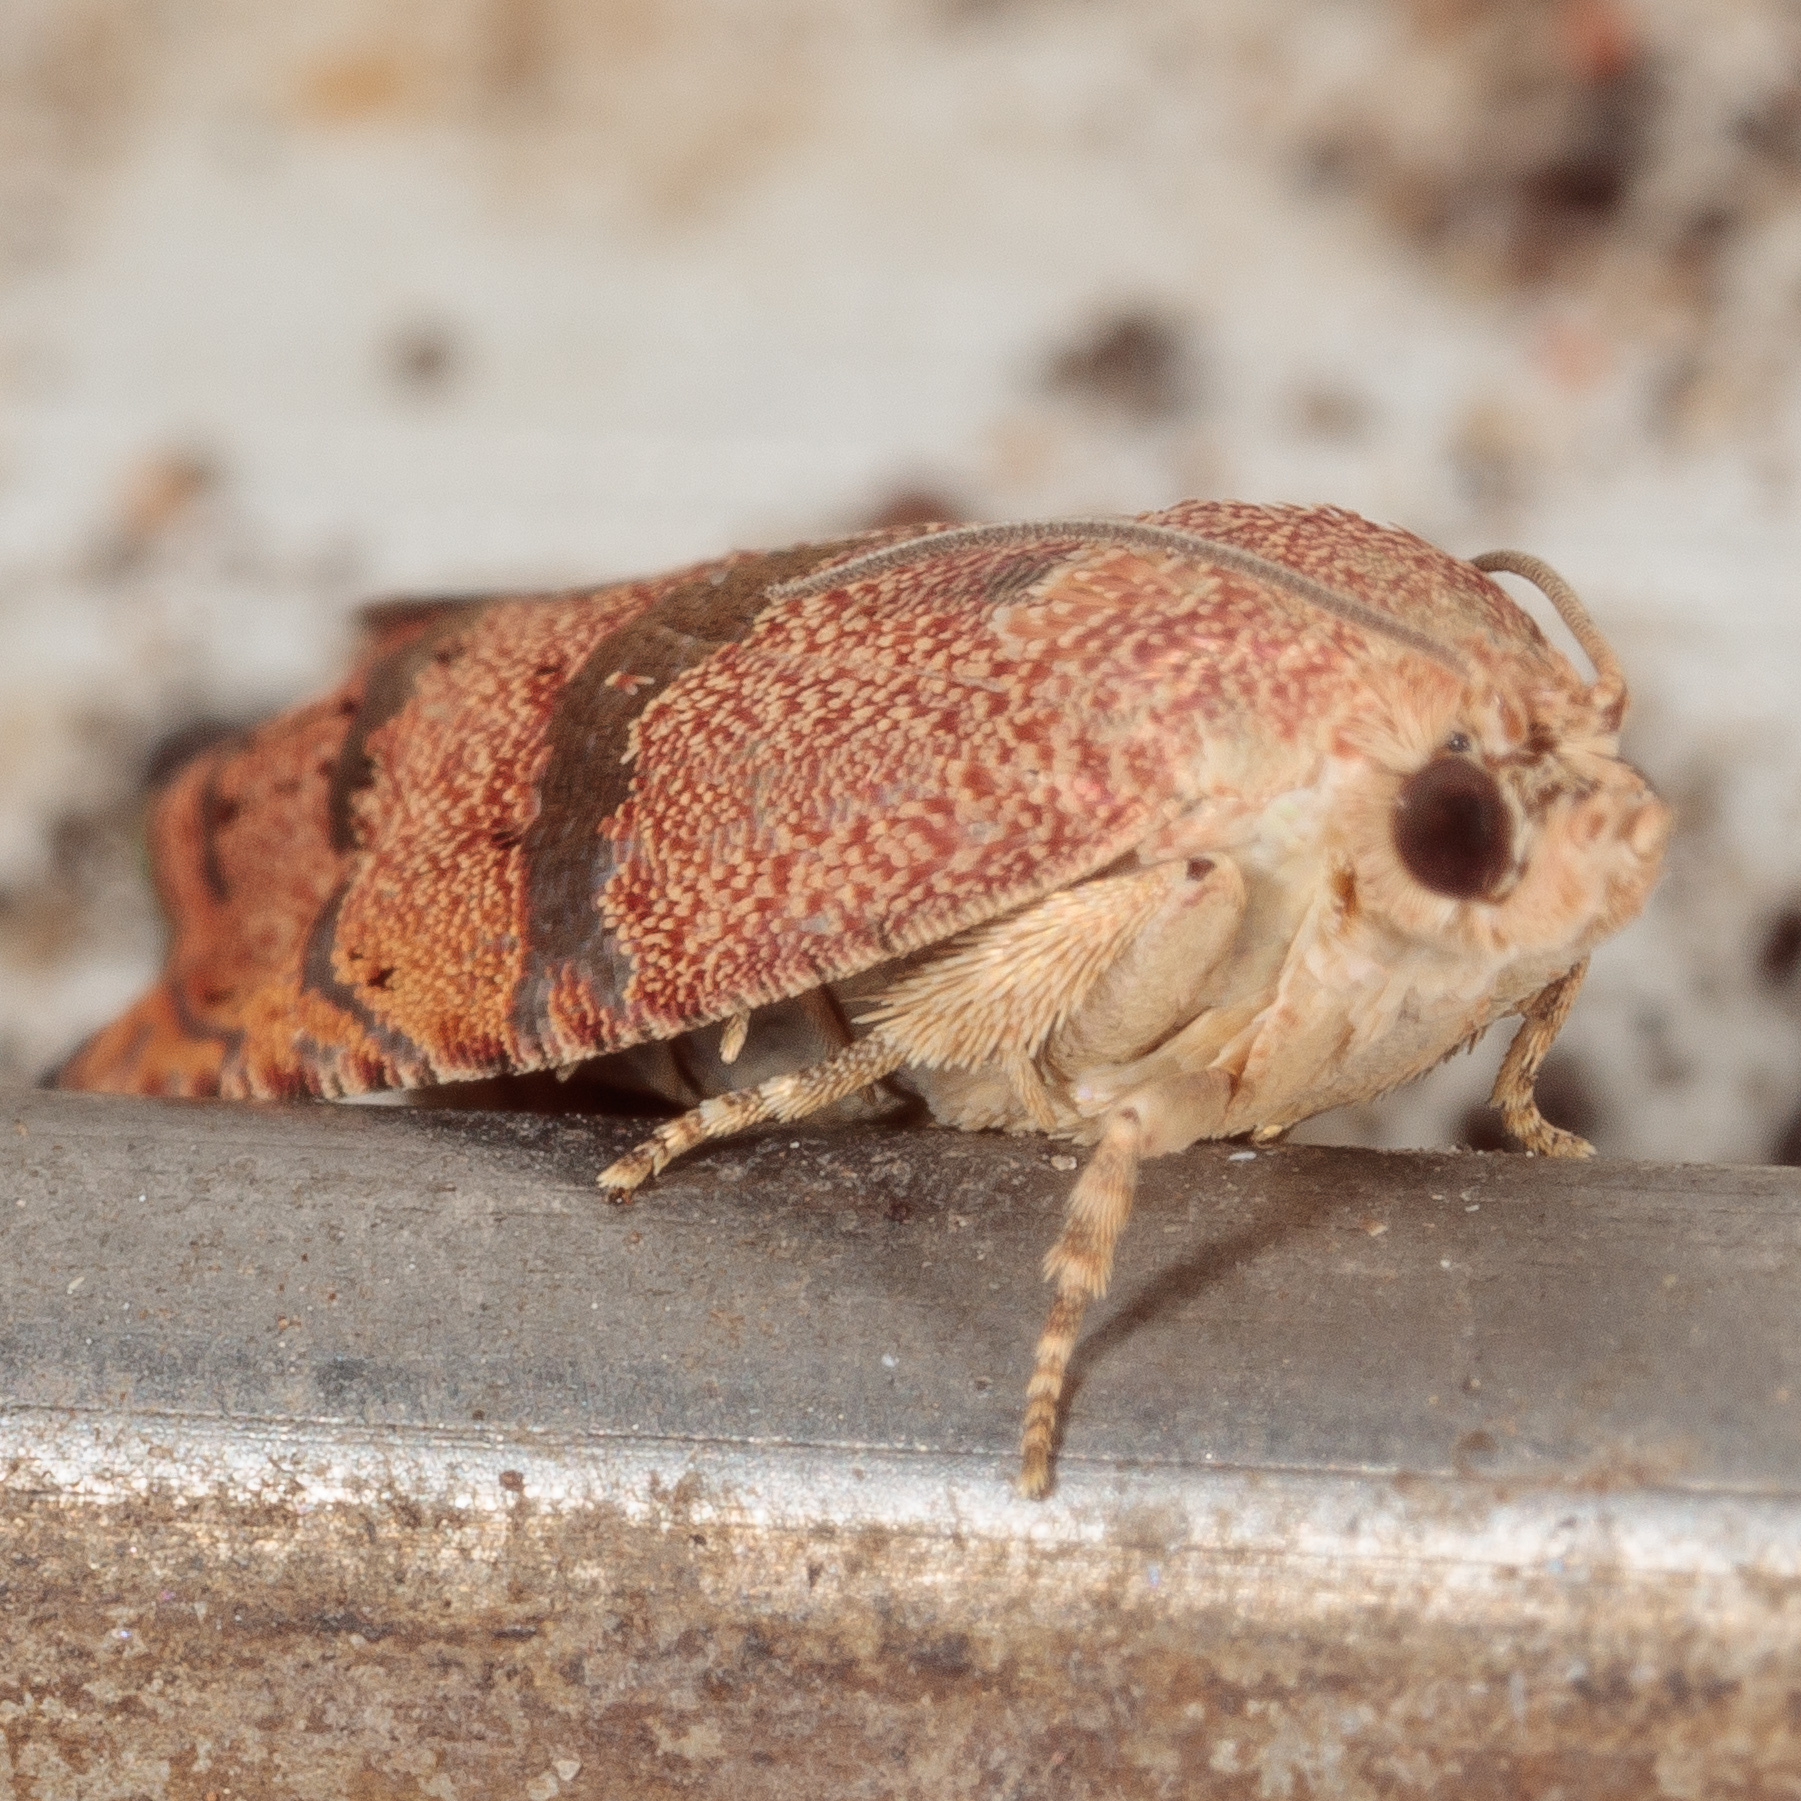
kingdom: Animalia
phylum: Arthropoda
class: Insecta
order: Lepidoptera
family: Tortricidae
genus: Cydia
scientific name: Cydia latiferreana
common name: Filbertworm moth
